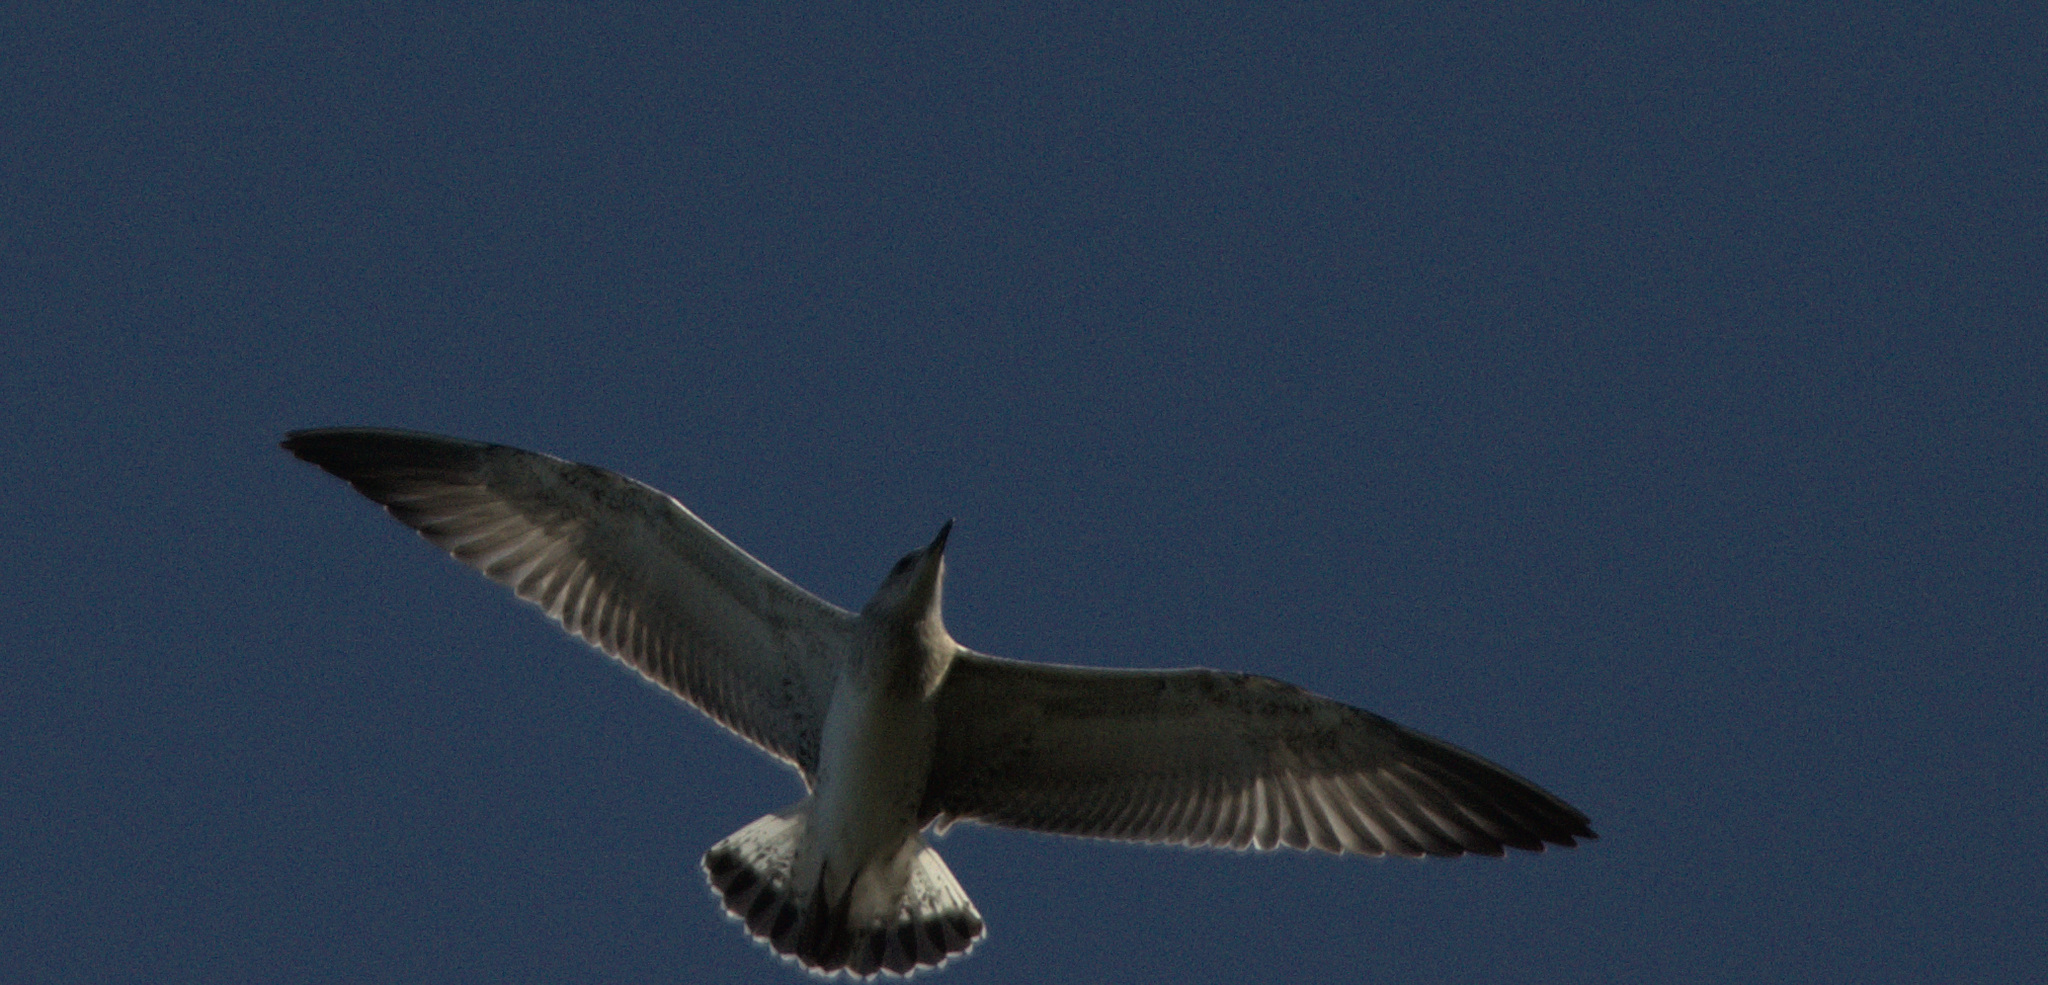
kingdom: Animalia
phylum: Chordata
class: Aves
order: Charadriiformes
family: Laridae
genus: Larus
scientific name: Larus fuscus
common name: Lesser black-backed gull
